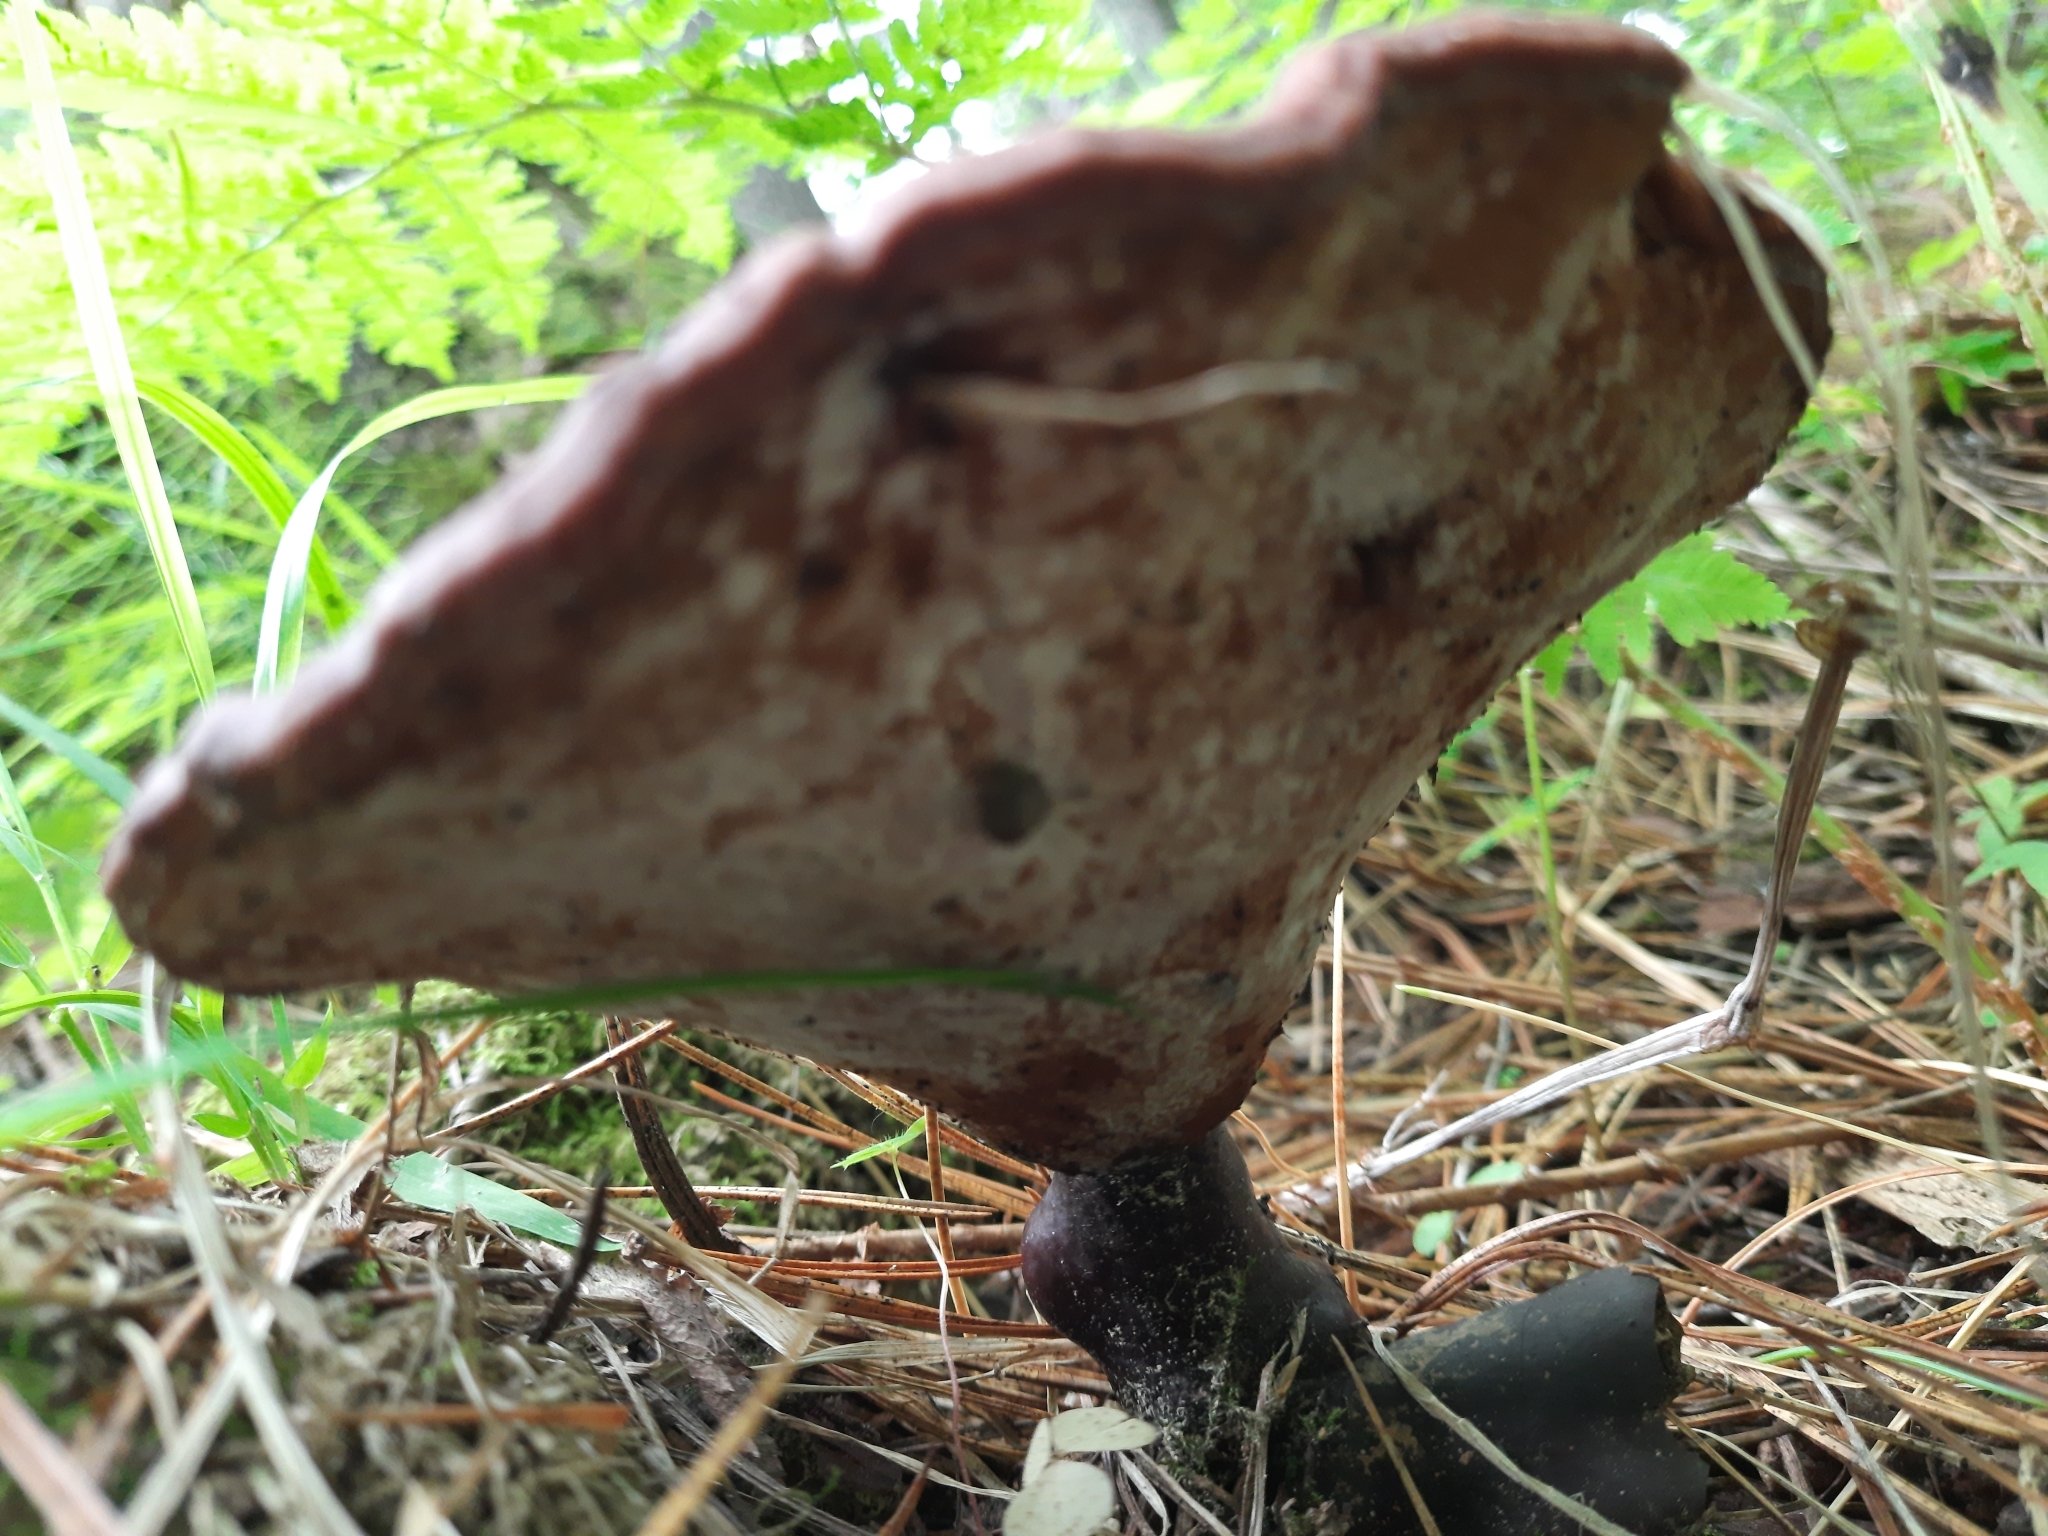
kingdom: Fungi
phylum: Basidiomycota
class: Agaricomycetes
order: Polyporales
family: Polyporaceae
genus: Ganoderma
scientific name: Ganoderma lucidum
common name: Lacquered bracket
